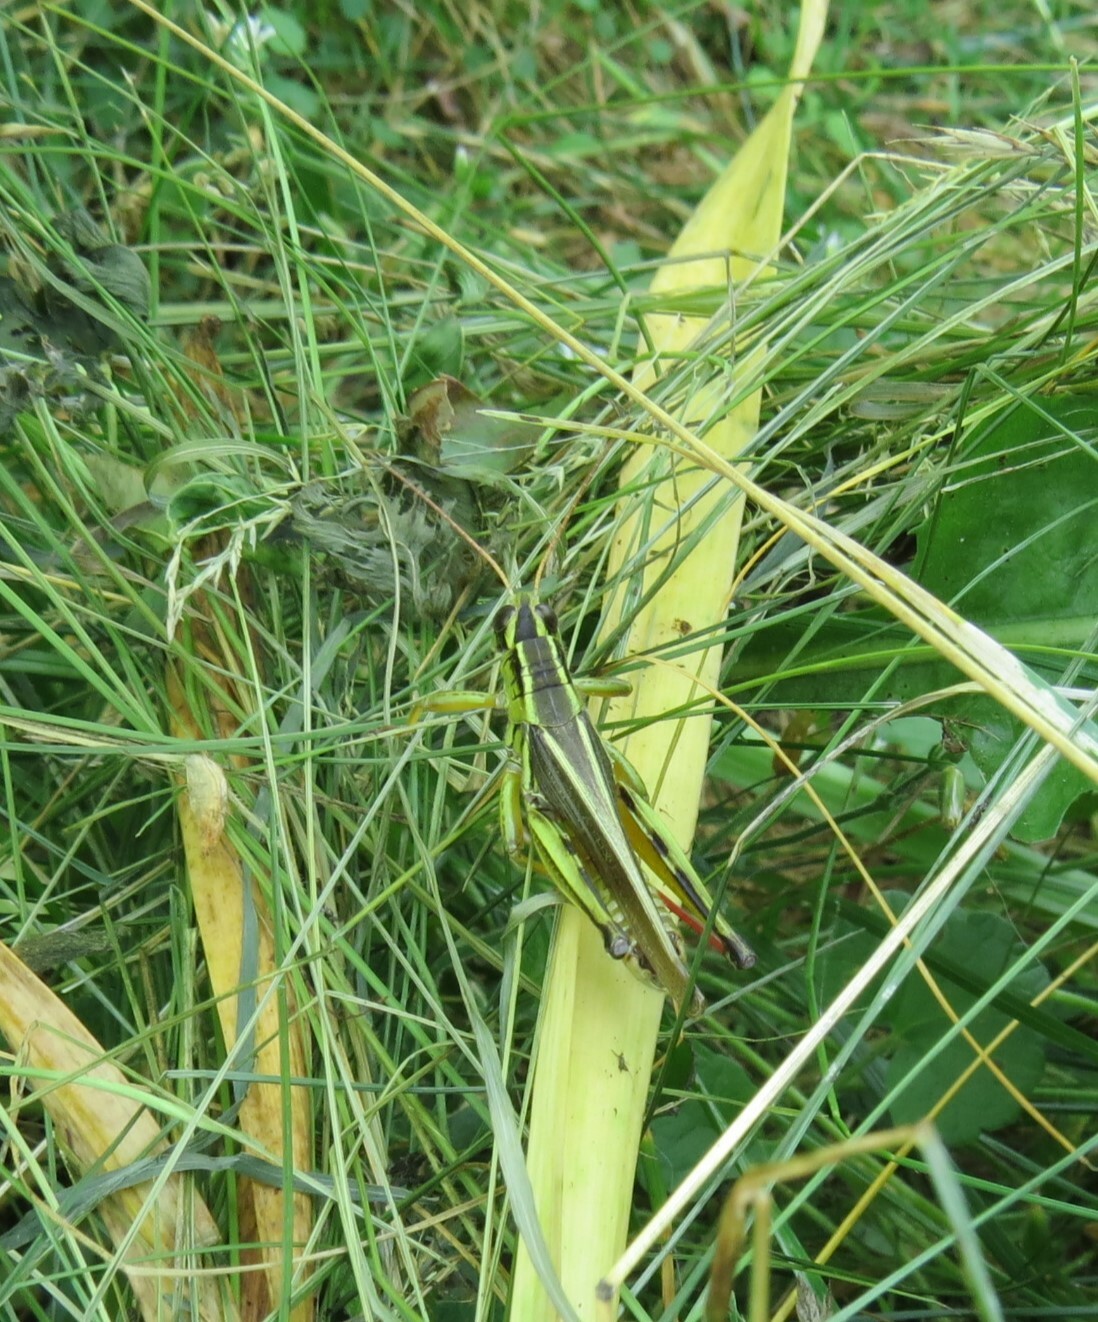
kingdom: Animalia
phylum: Arthropoda
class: Insecta
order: Orthoptera
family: Acrididae
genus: Melanoplus
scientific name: Melanoplus bivittatus
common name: Two-striped grasshopper
